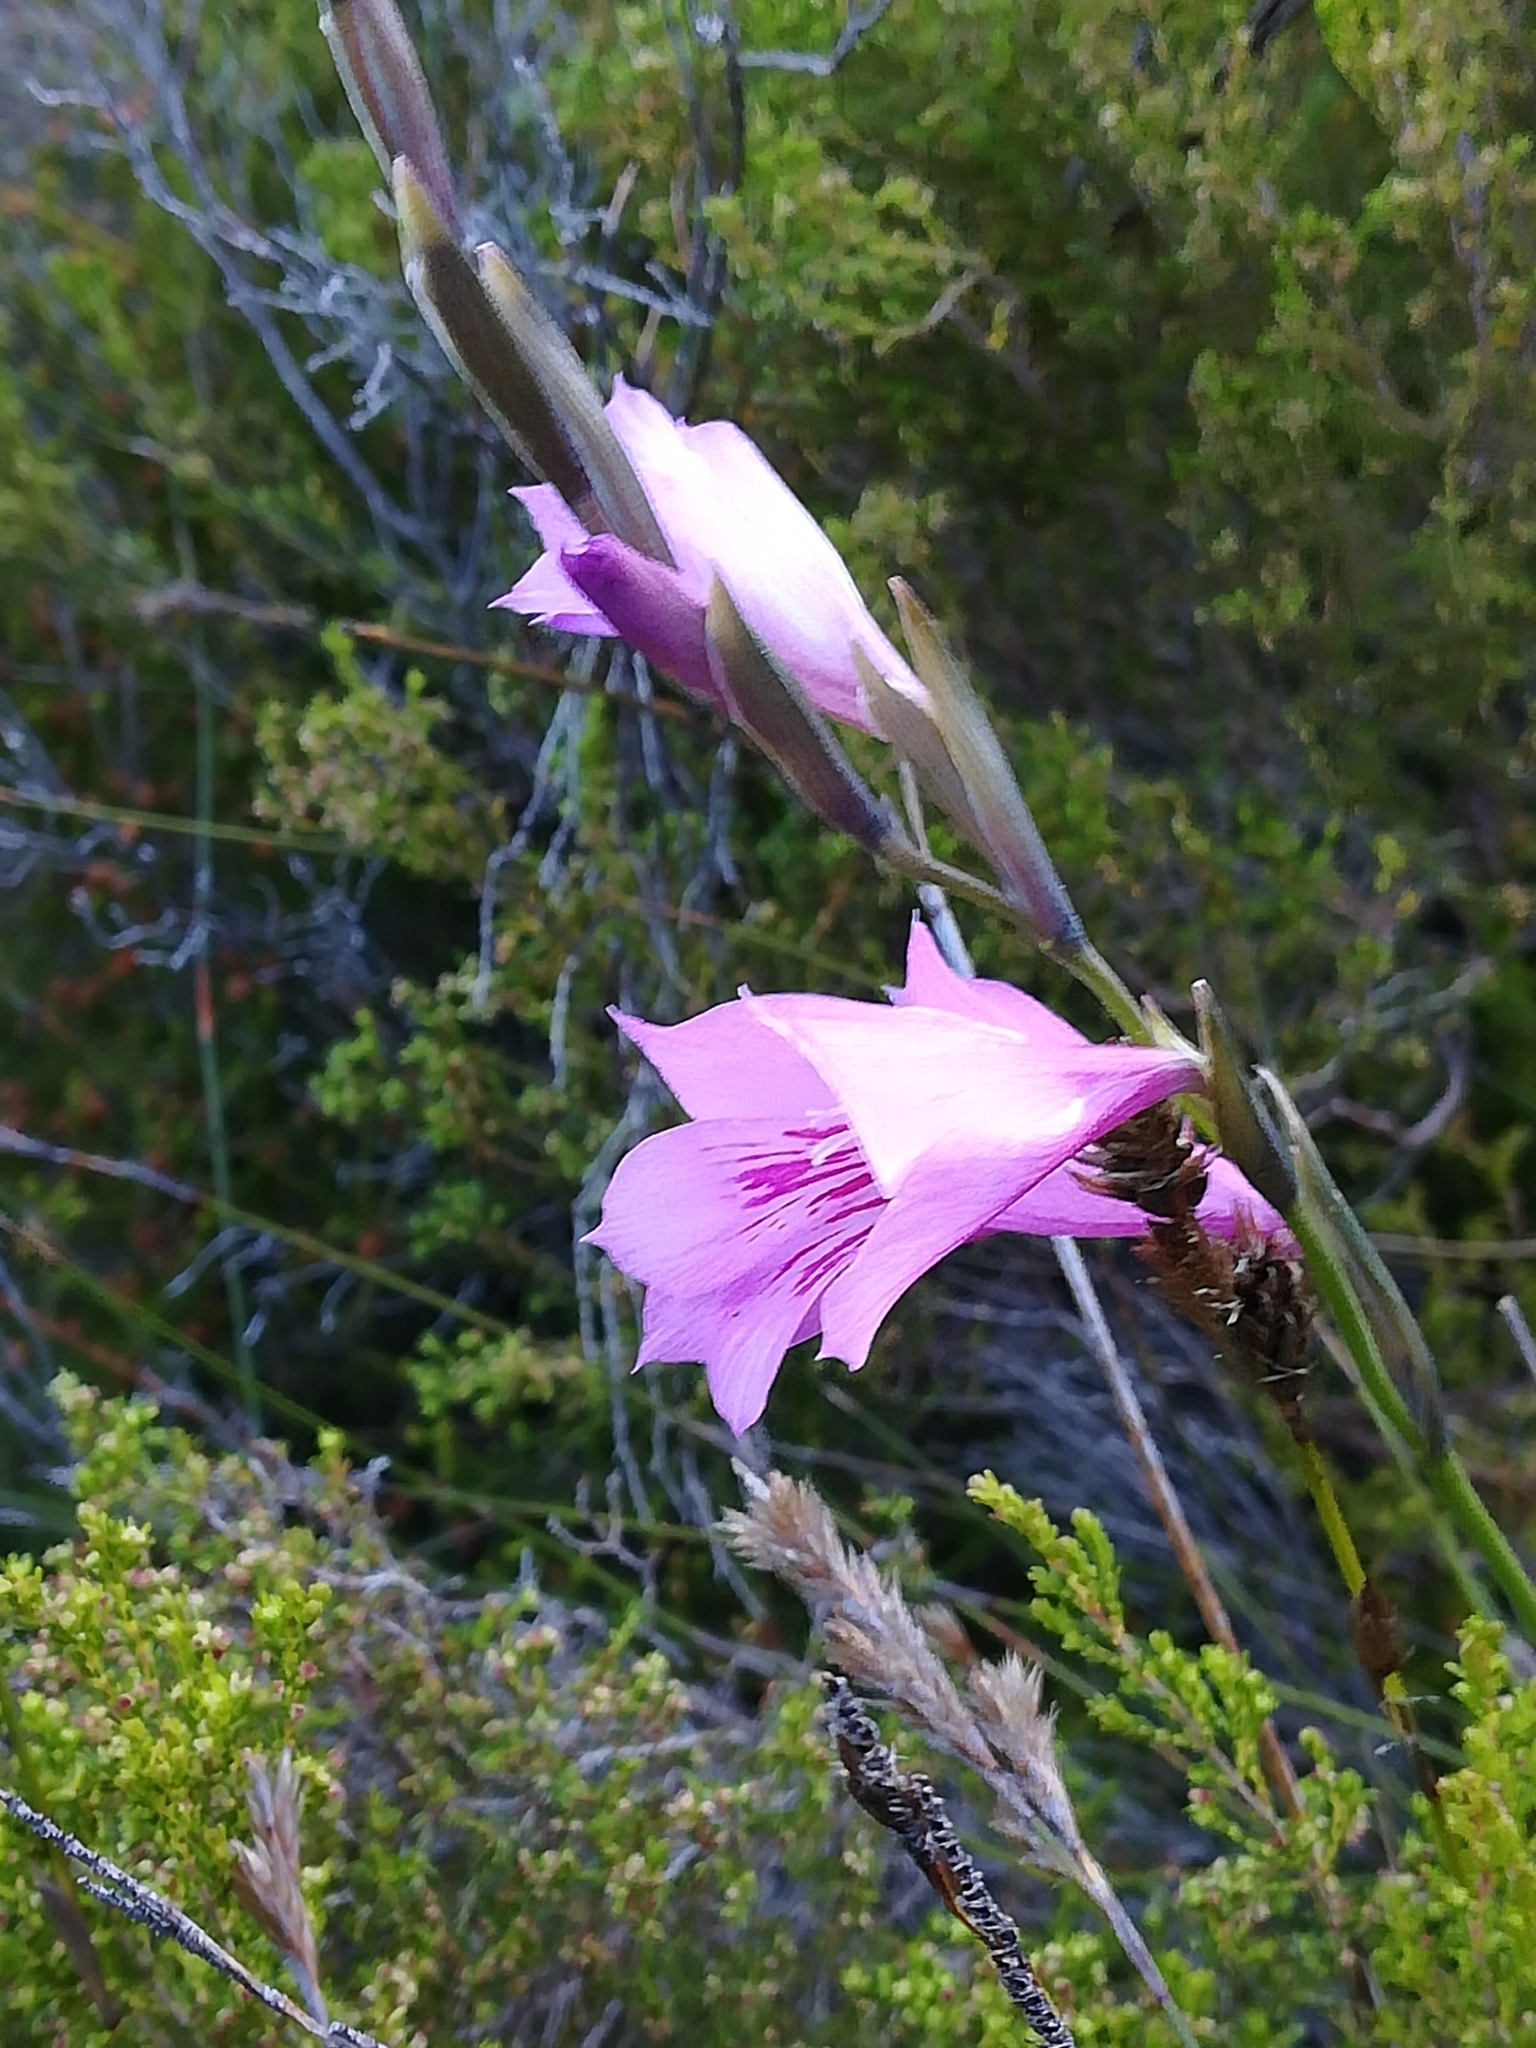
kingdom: Plantae
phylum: Tracheophyta
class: Liliopsida
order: Asparagales
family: Iridaceae
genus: Gladiolus
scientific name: Gladiolus hirsutus
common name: Small pink afrikaner
